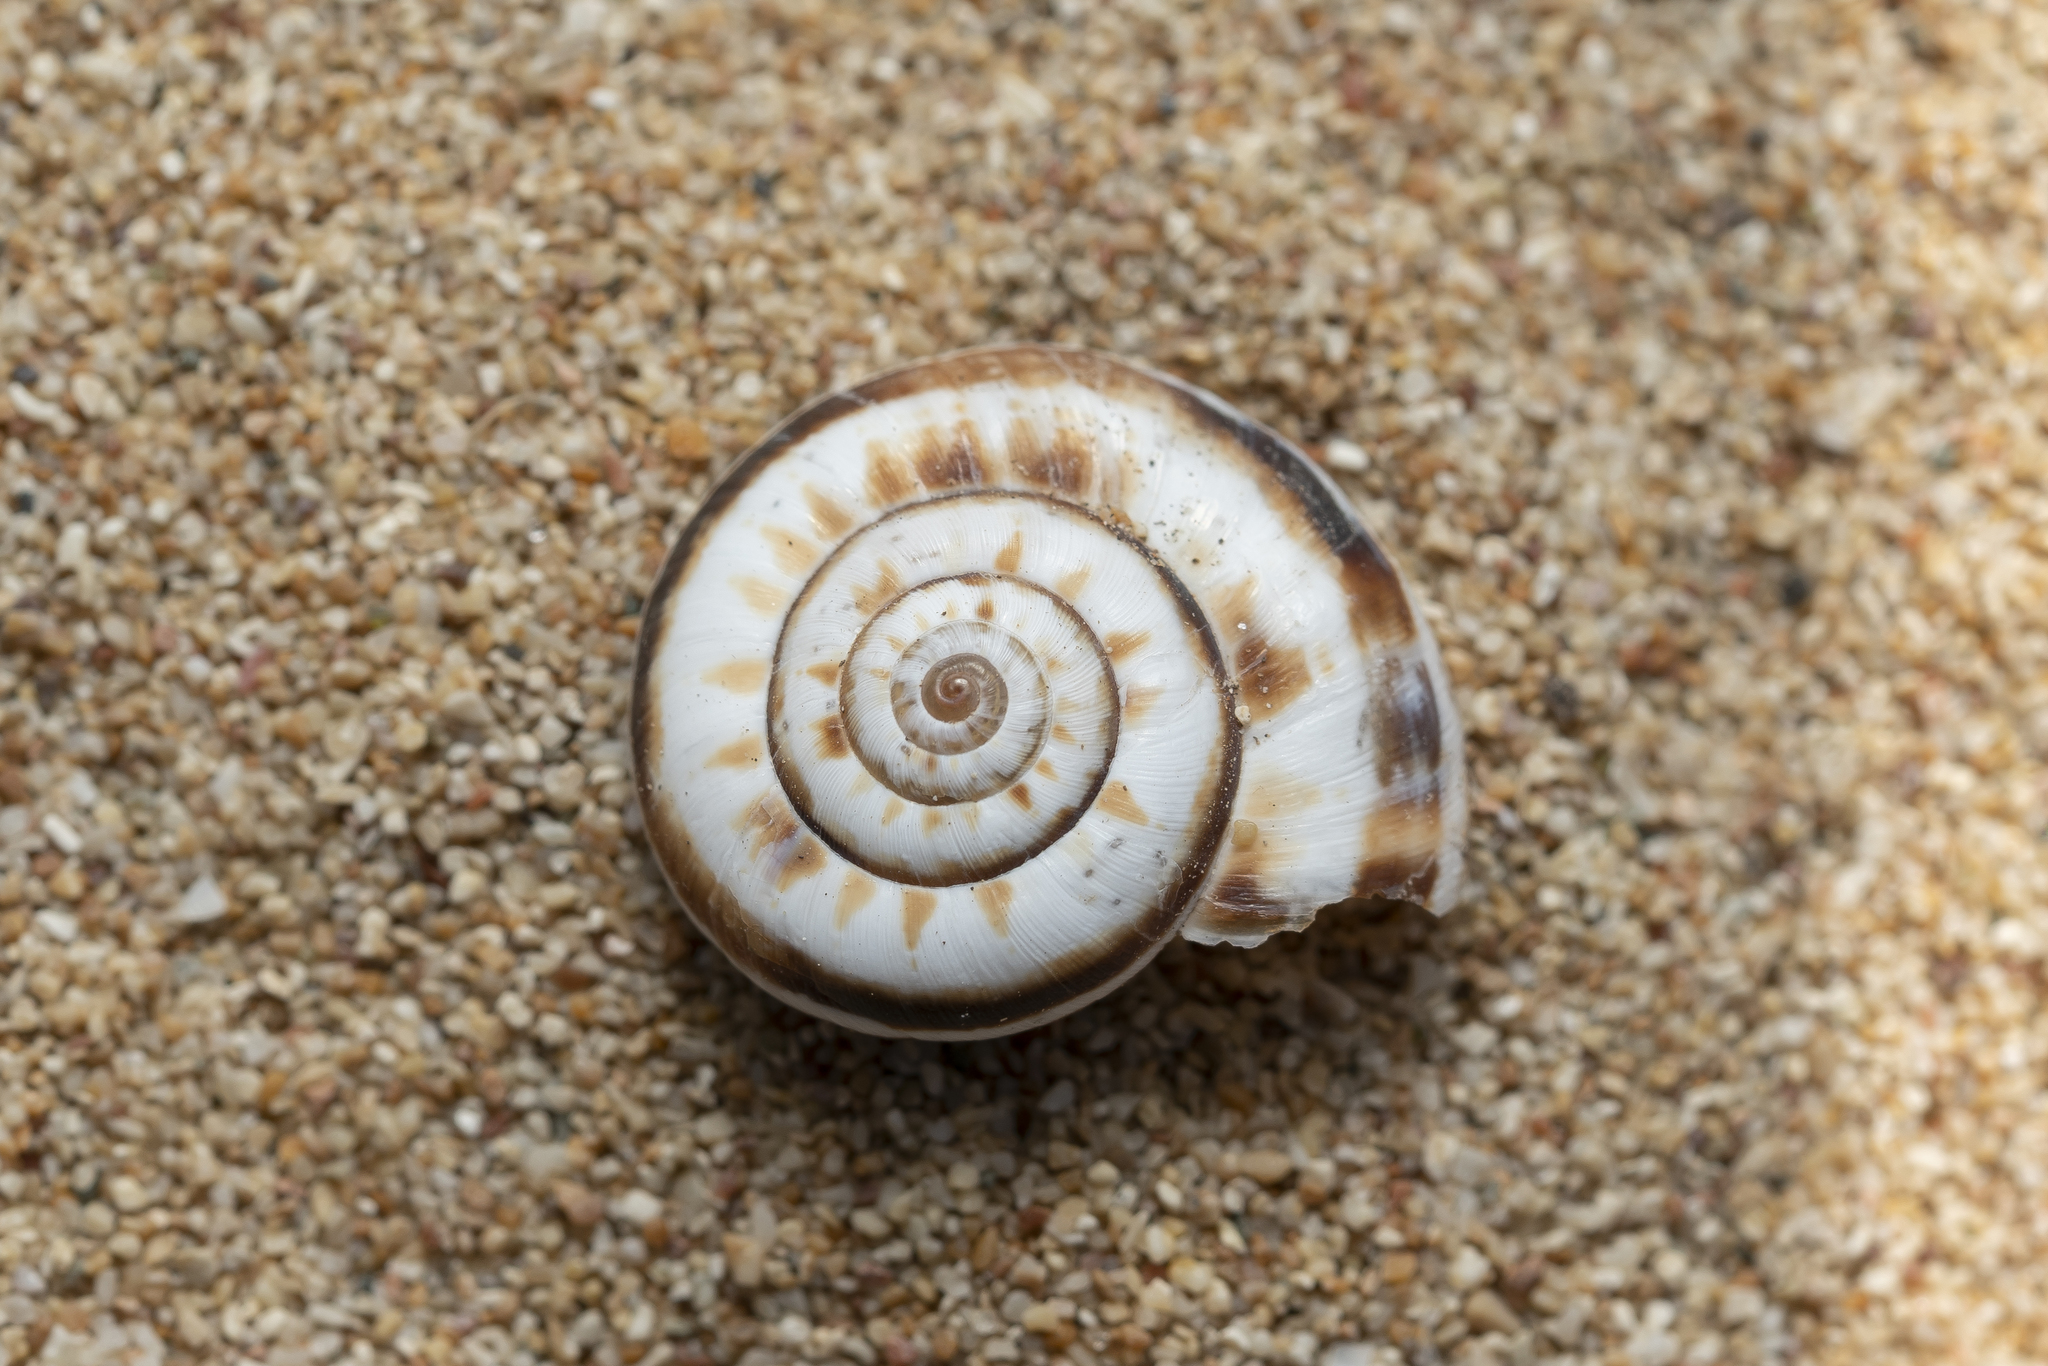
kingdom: Animalia
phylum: Mollusca
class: Gastropoda
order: Stylommatophora
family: Geomitridae
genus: Xeropicta
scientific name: Xeropicta krynickii
